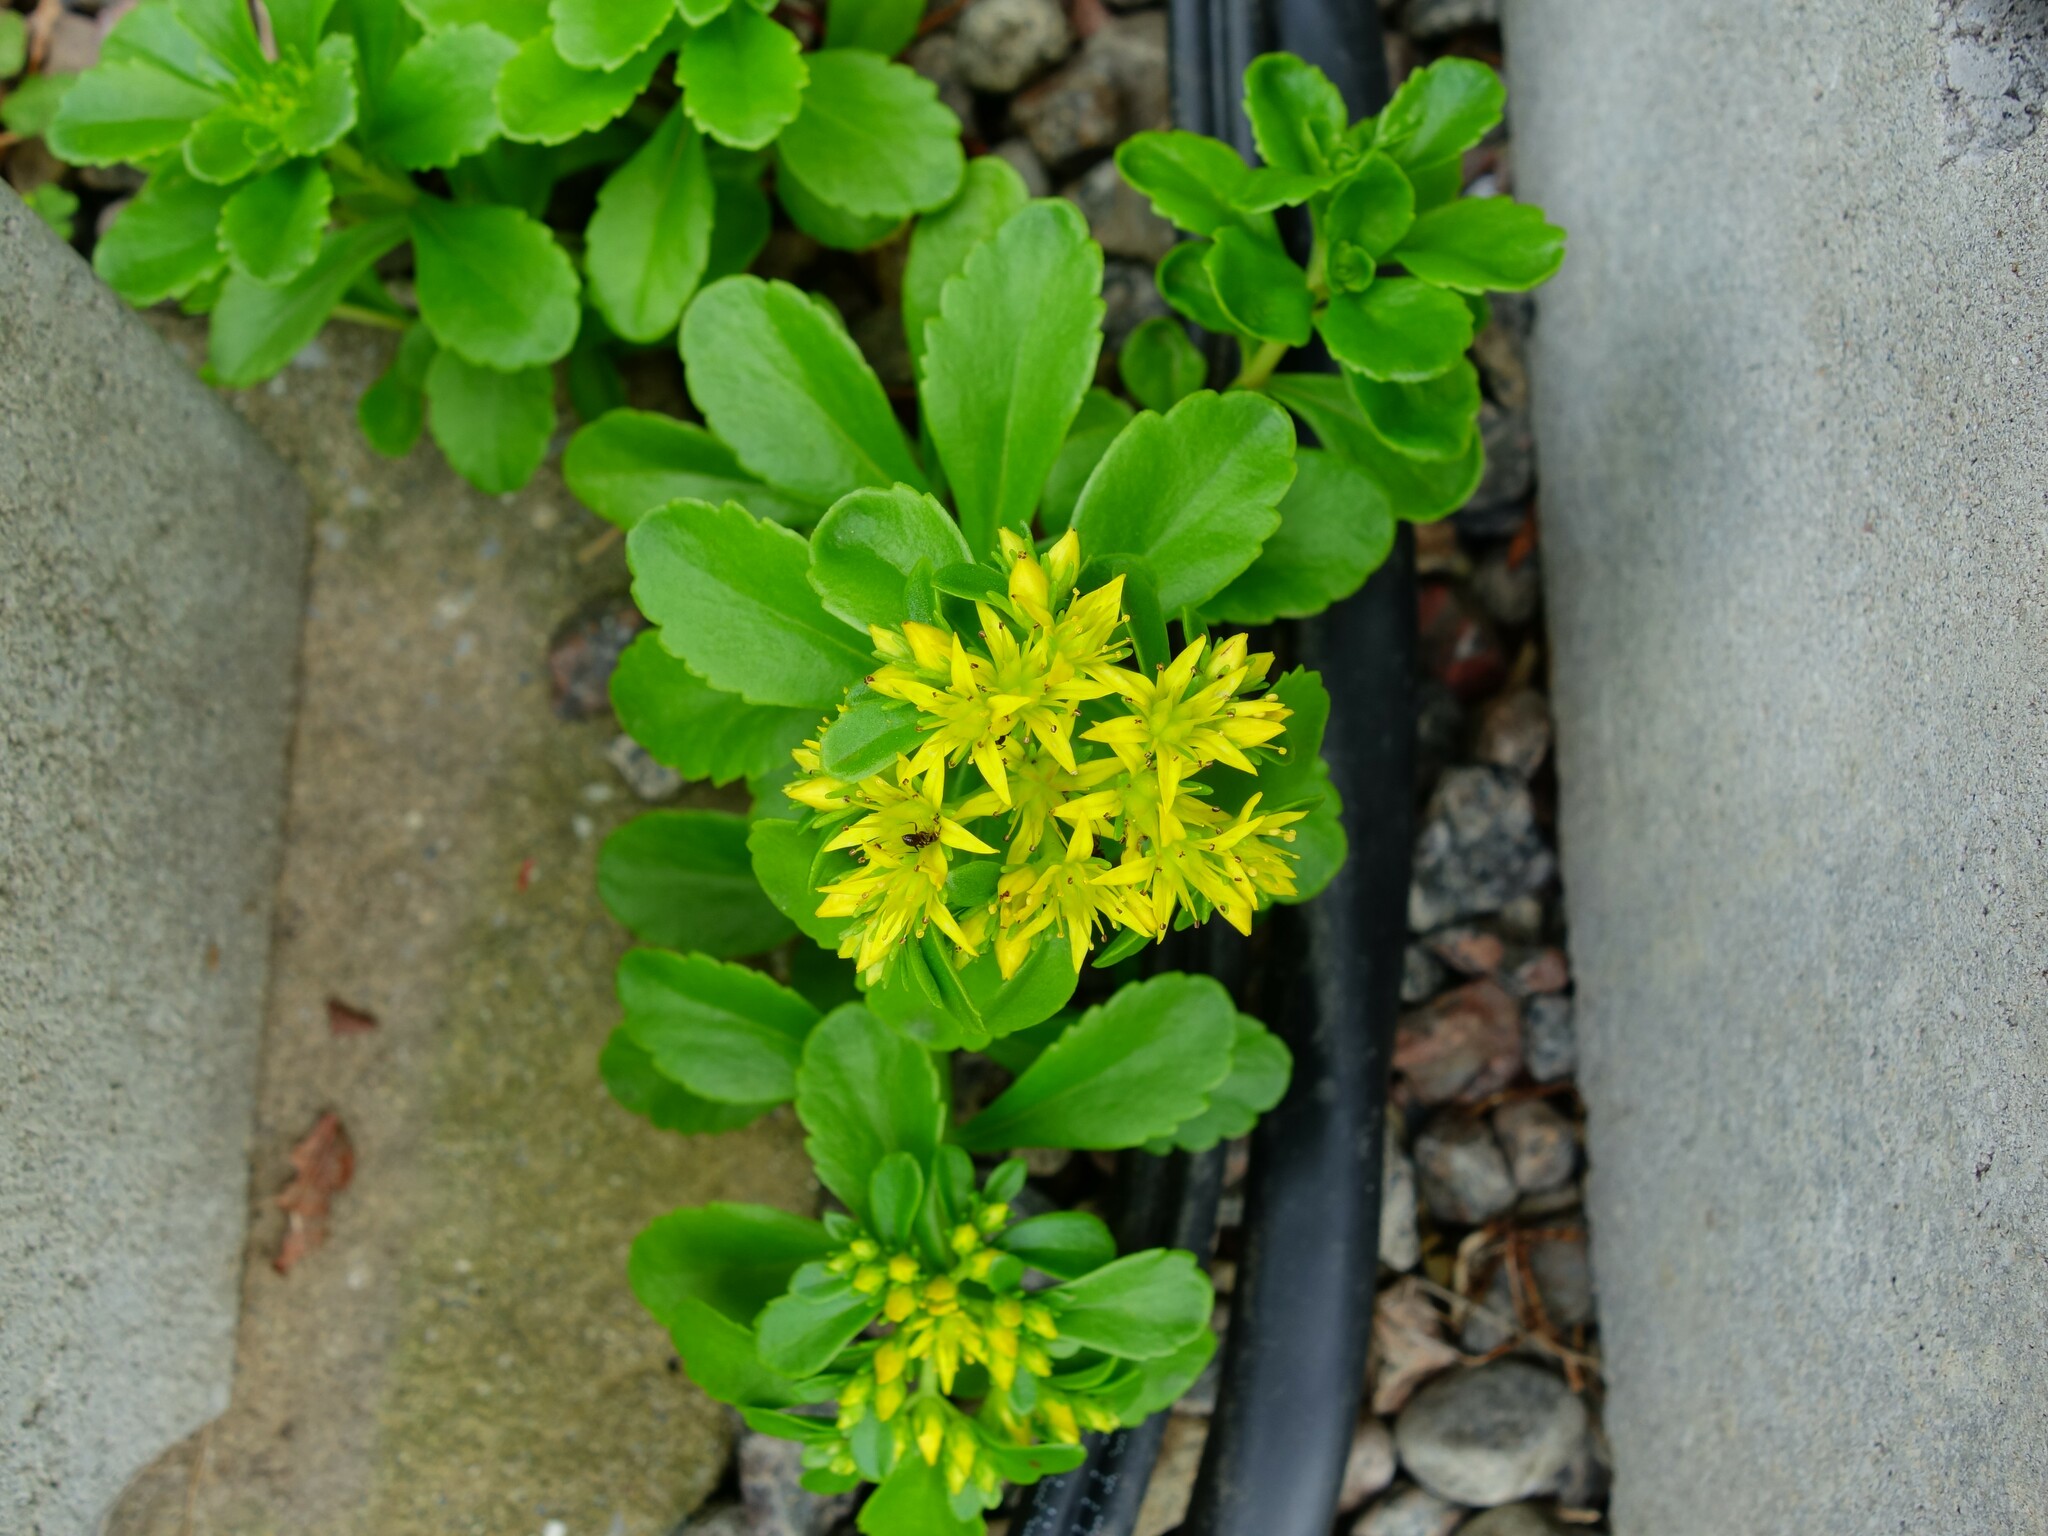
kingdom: Plantae
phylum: Tracheophyta
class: Magnoliopsida
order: Saxifragales
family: Crassulaceae
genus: Phedimus
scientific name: Phedimus ellacombeanus
